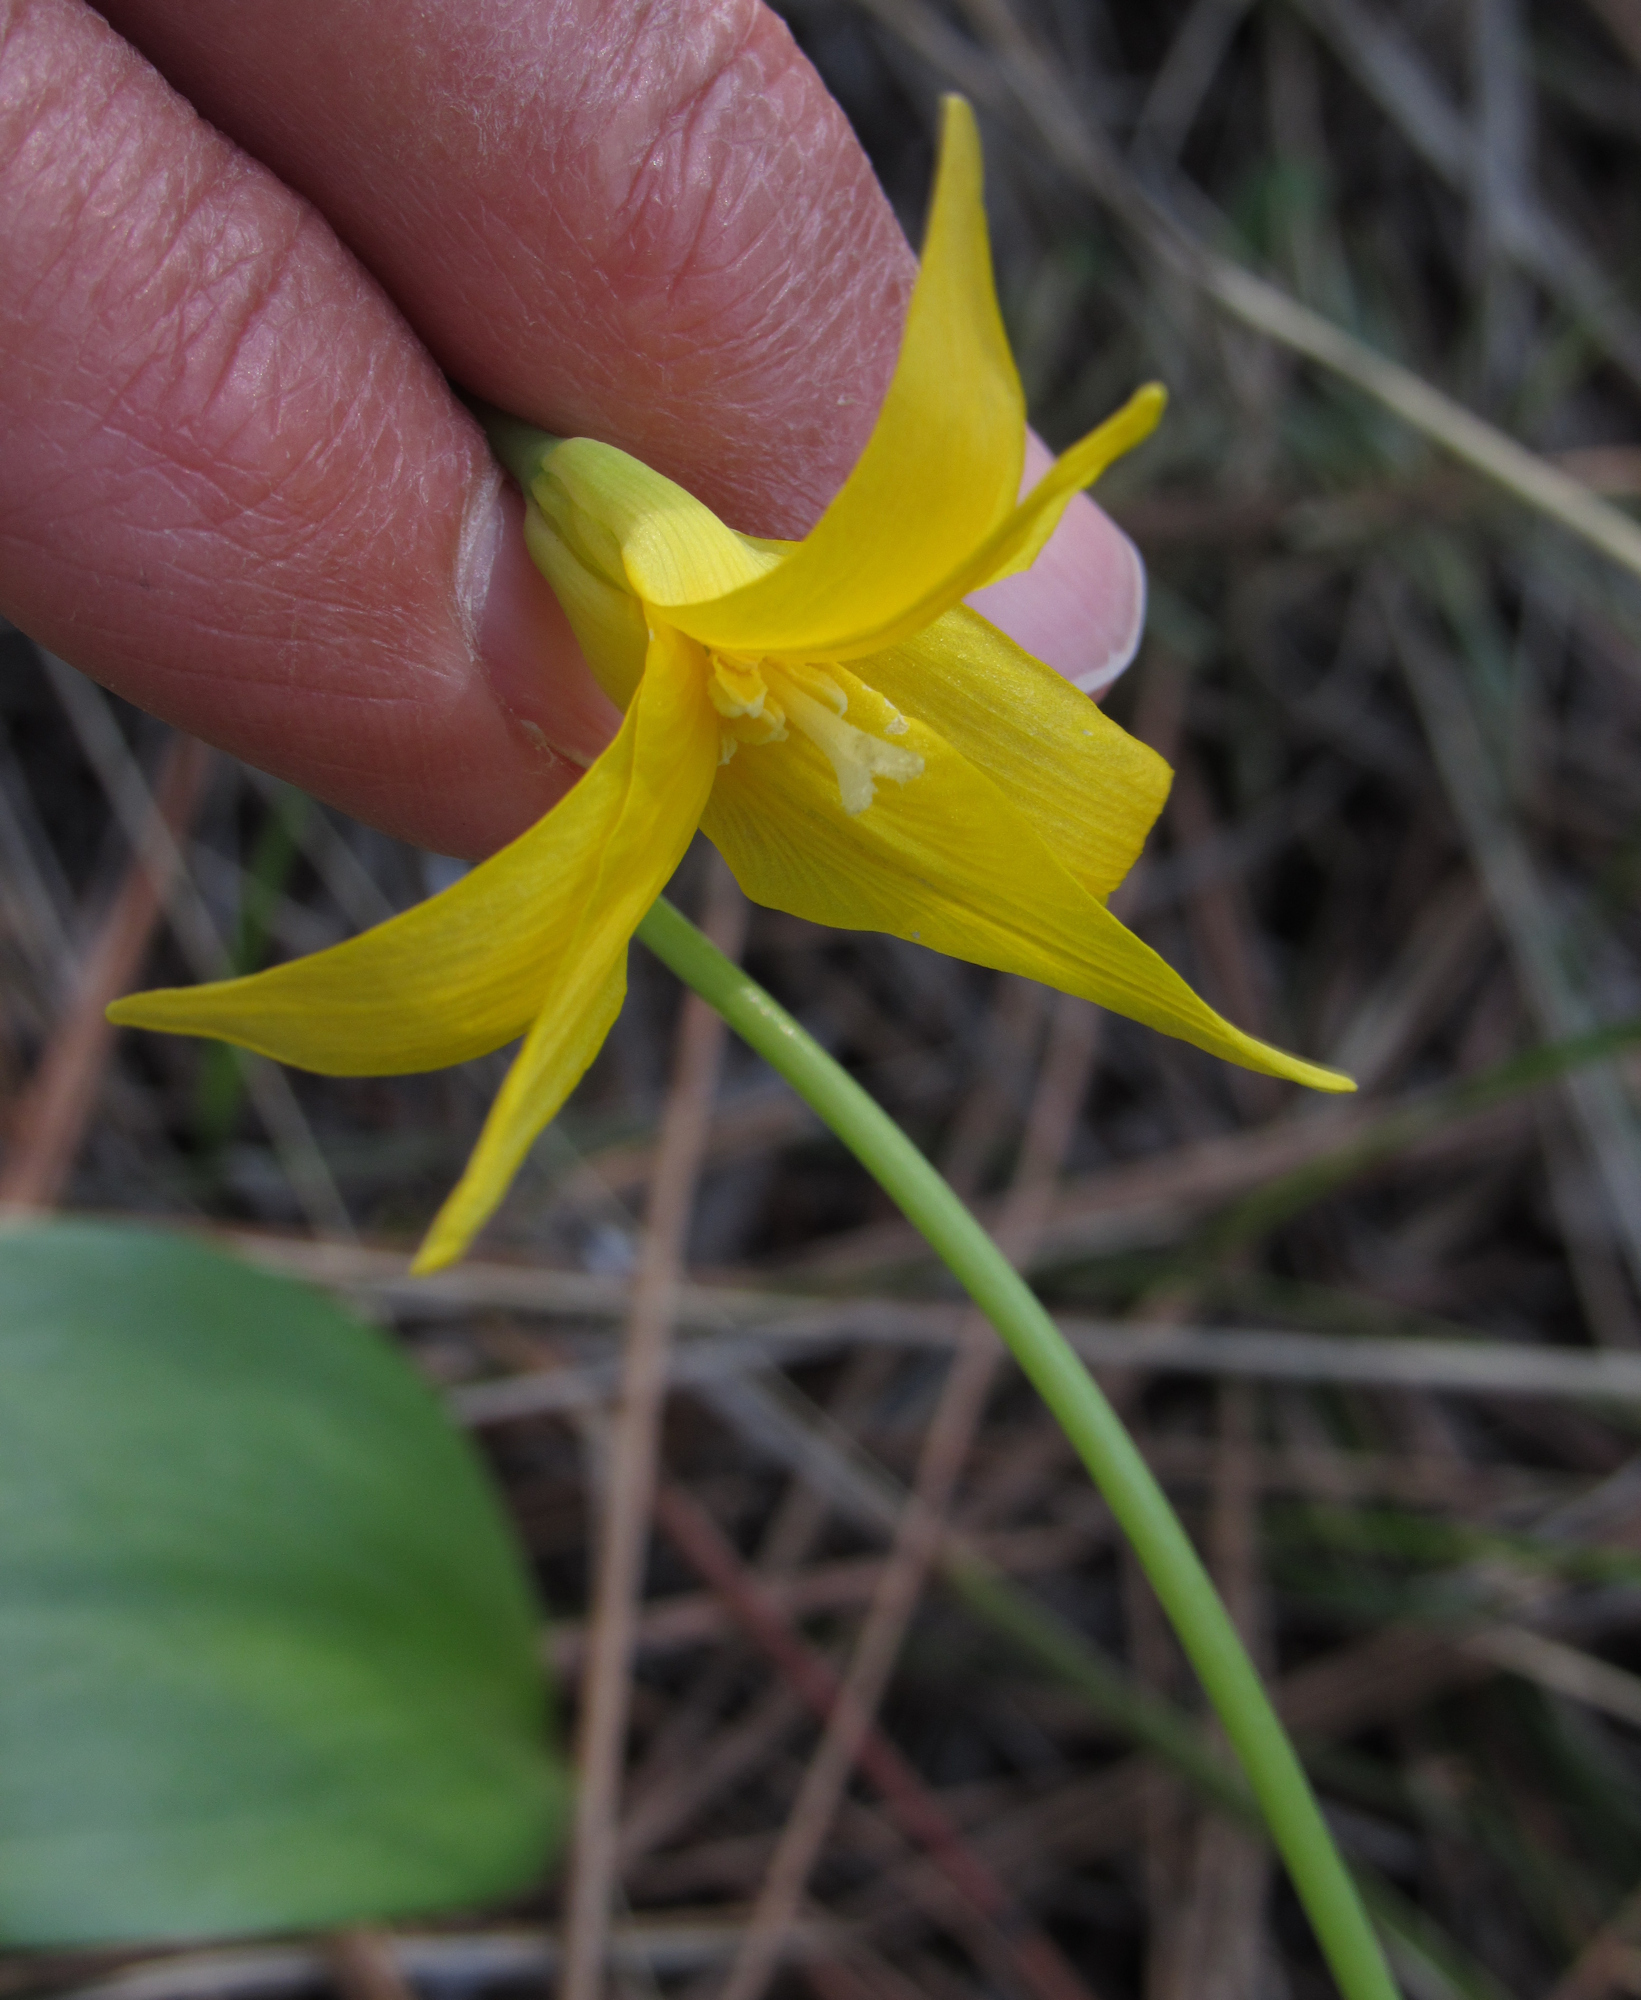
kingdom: Plantae
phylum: Tracheophyta
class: Liliopsida
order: Liliales
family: Liliaceae
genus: Erythronium
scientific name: Erythronium grandiflorum
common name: Avalanche-lily
